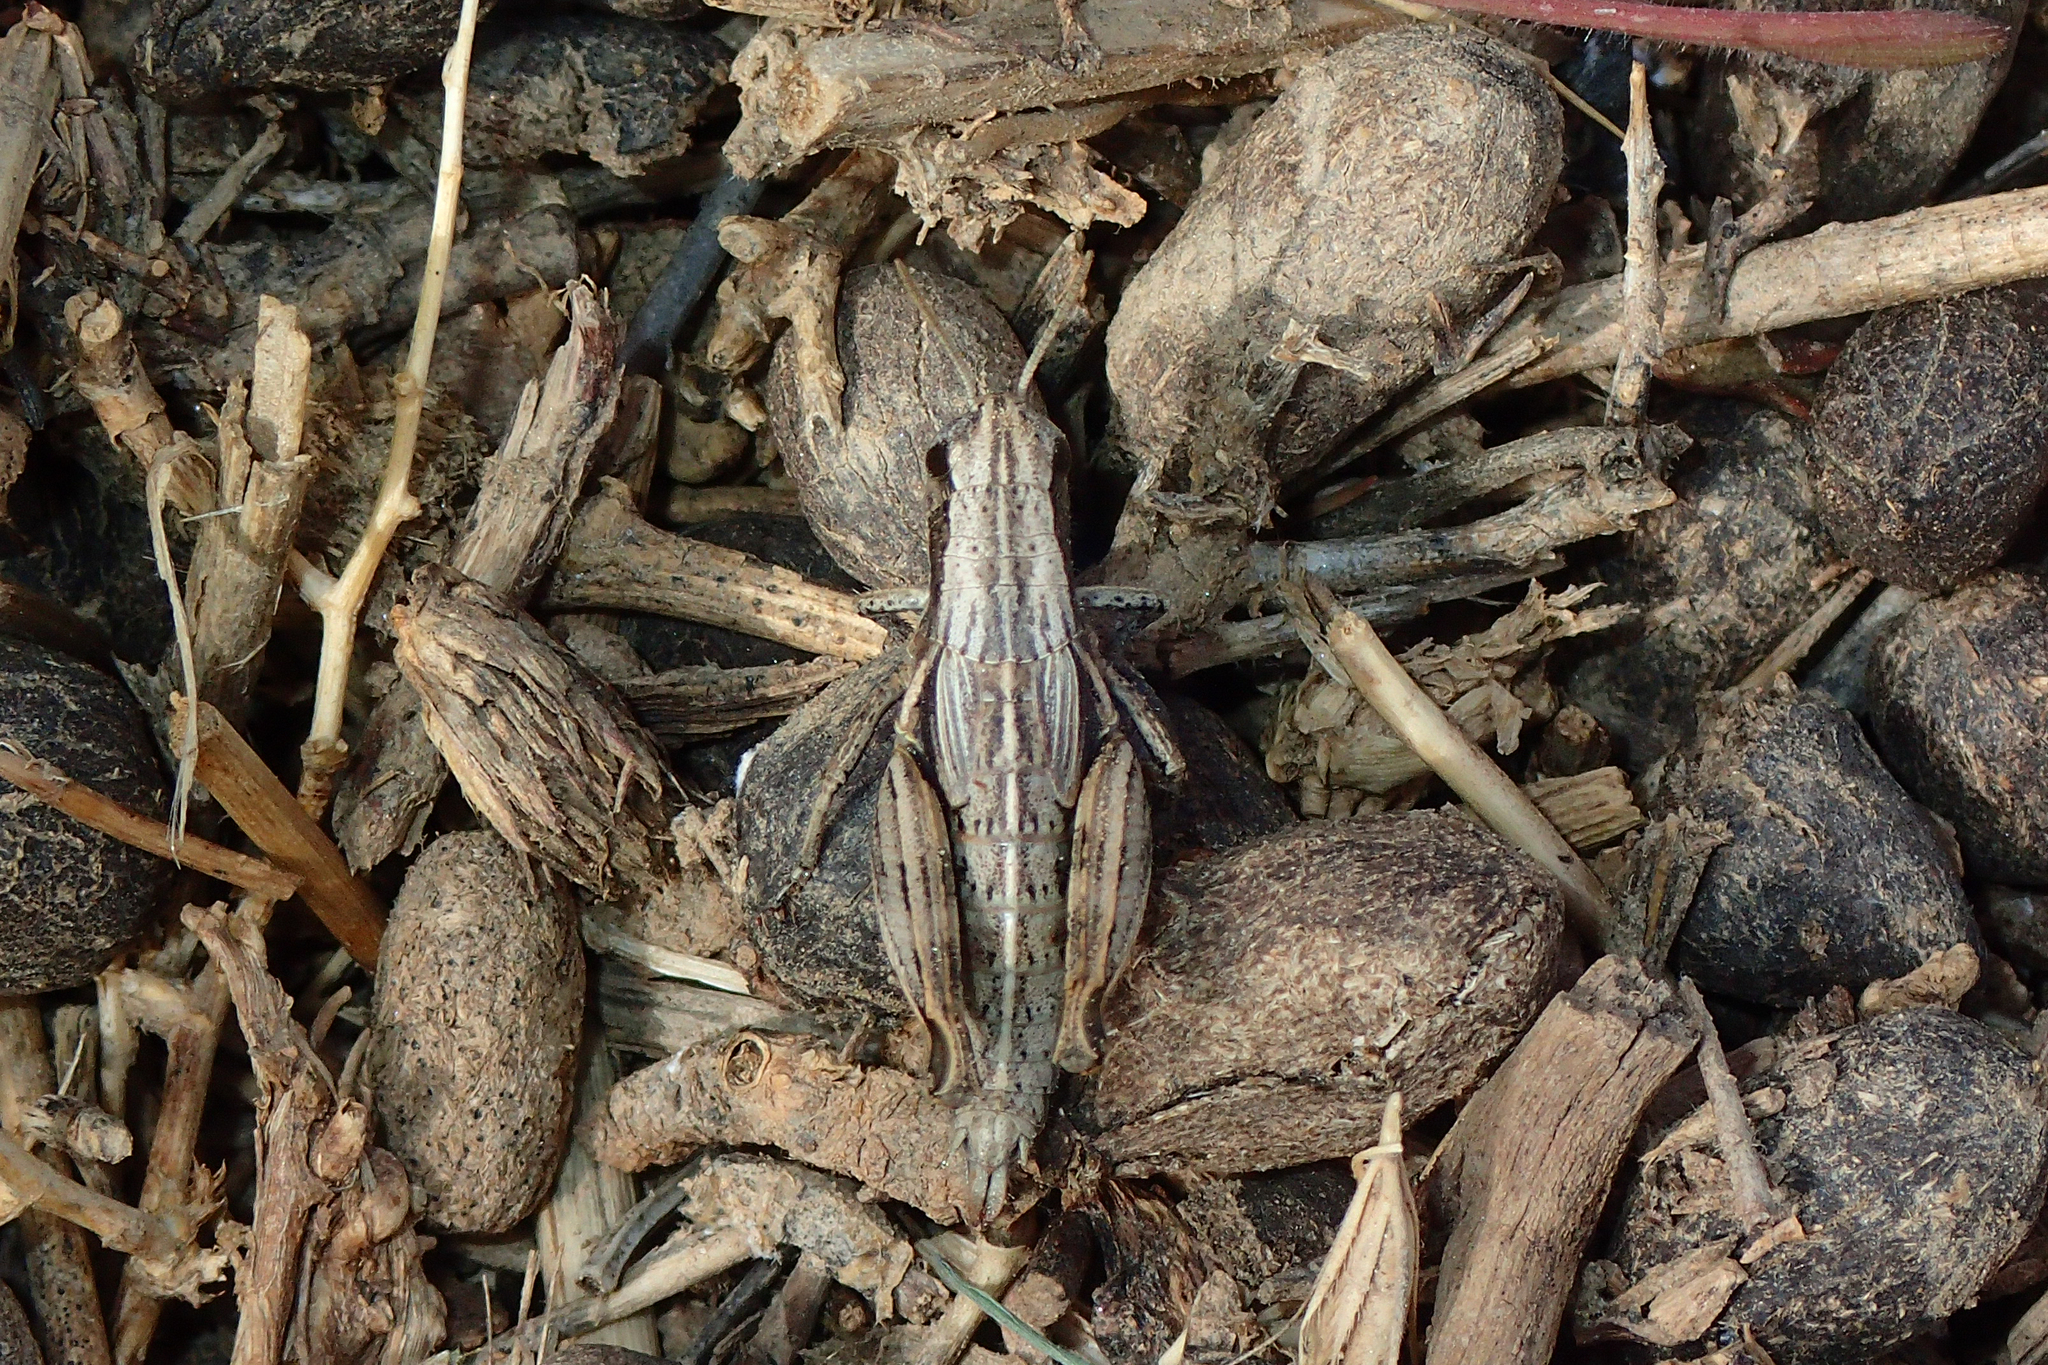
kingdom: Animalia
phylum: Arthropoda
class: Insecta
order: Orthoptera
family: Acrididae
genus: Pezotettix
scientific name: Pezotettix giornae
